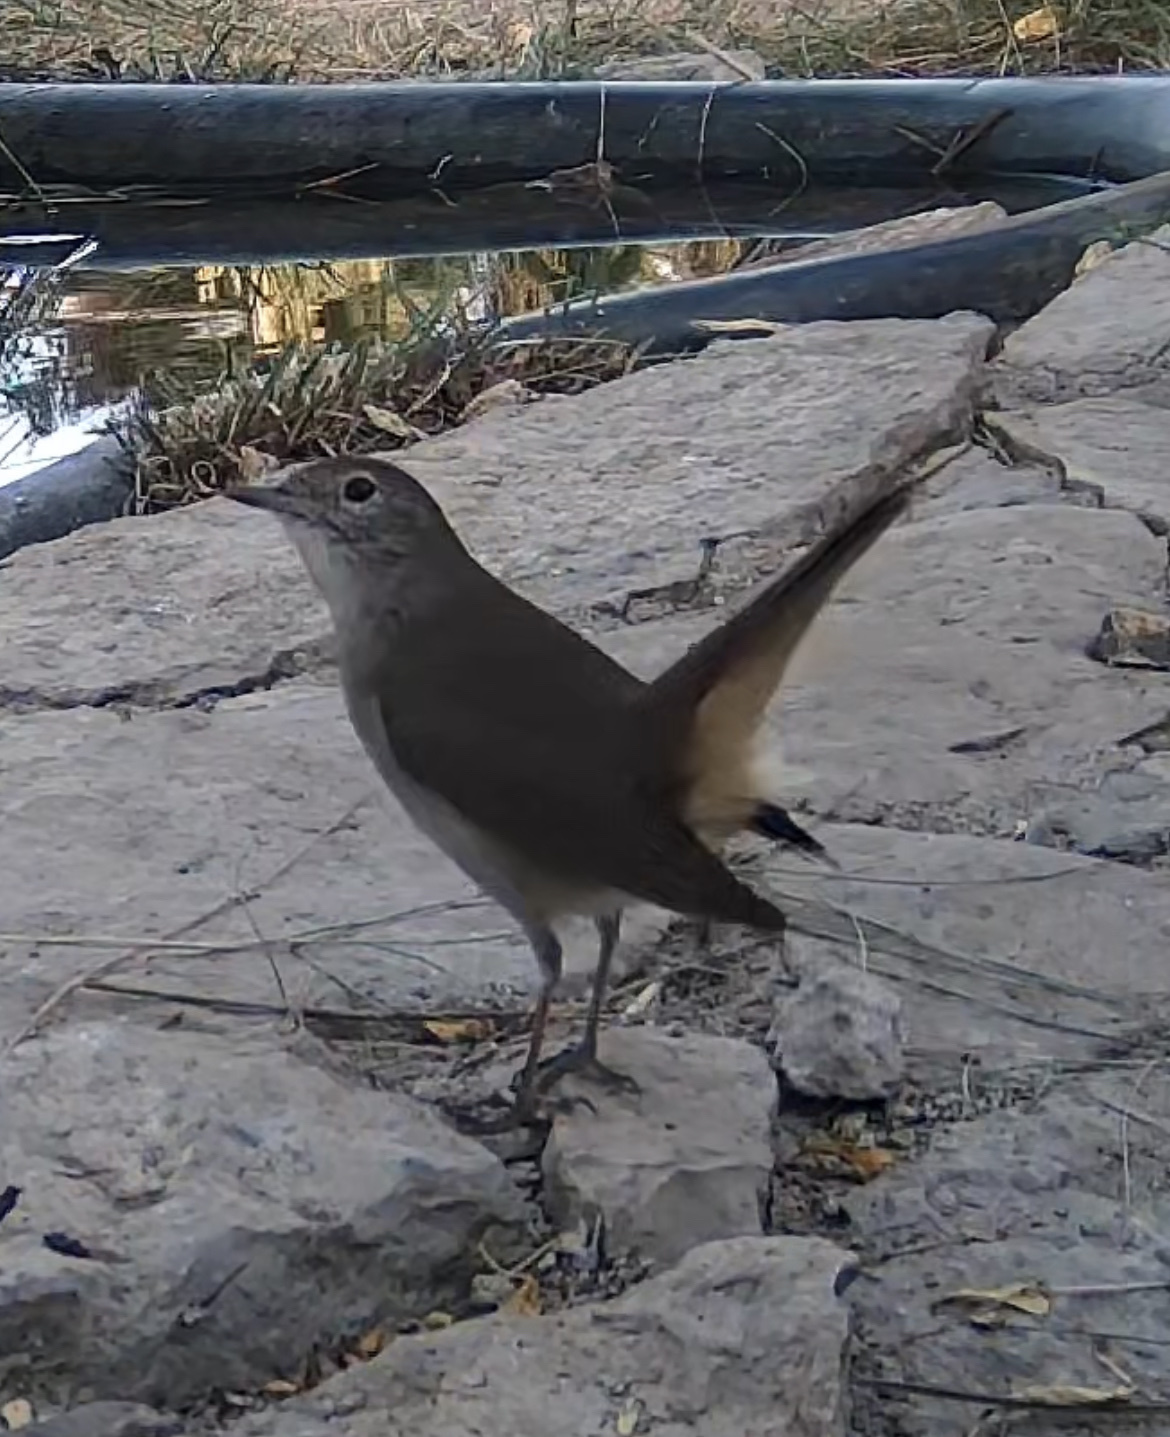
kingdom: Animalia
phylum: Chordata
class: Aves
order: Passeriformes
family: Muscicapidae
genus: Luscinia
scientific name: Luscinia megarhynchos
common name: Common nightingale
